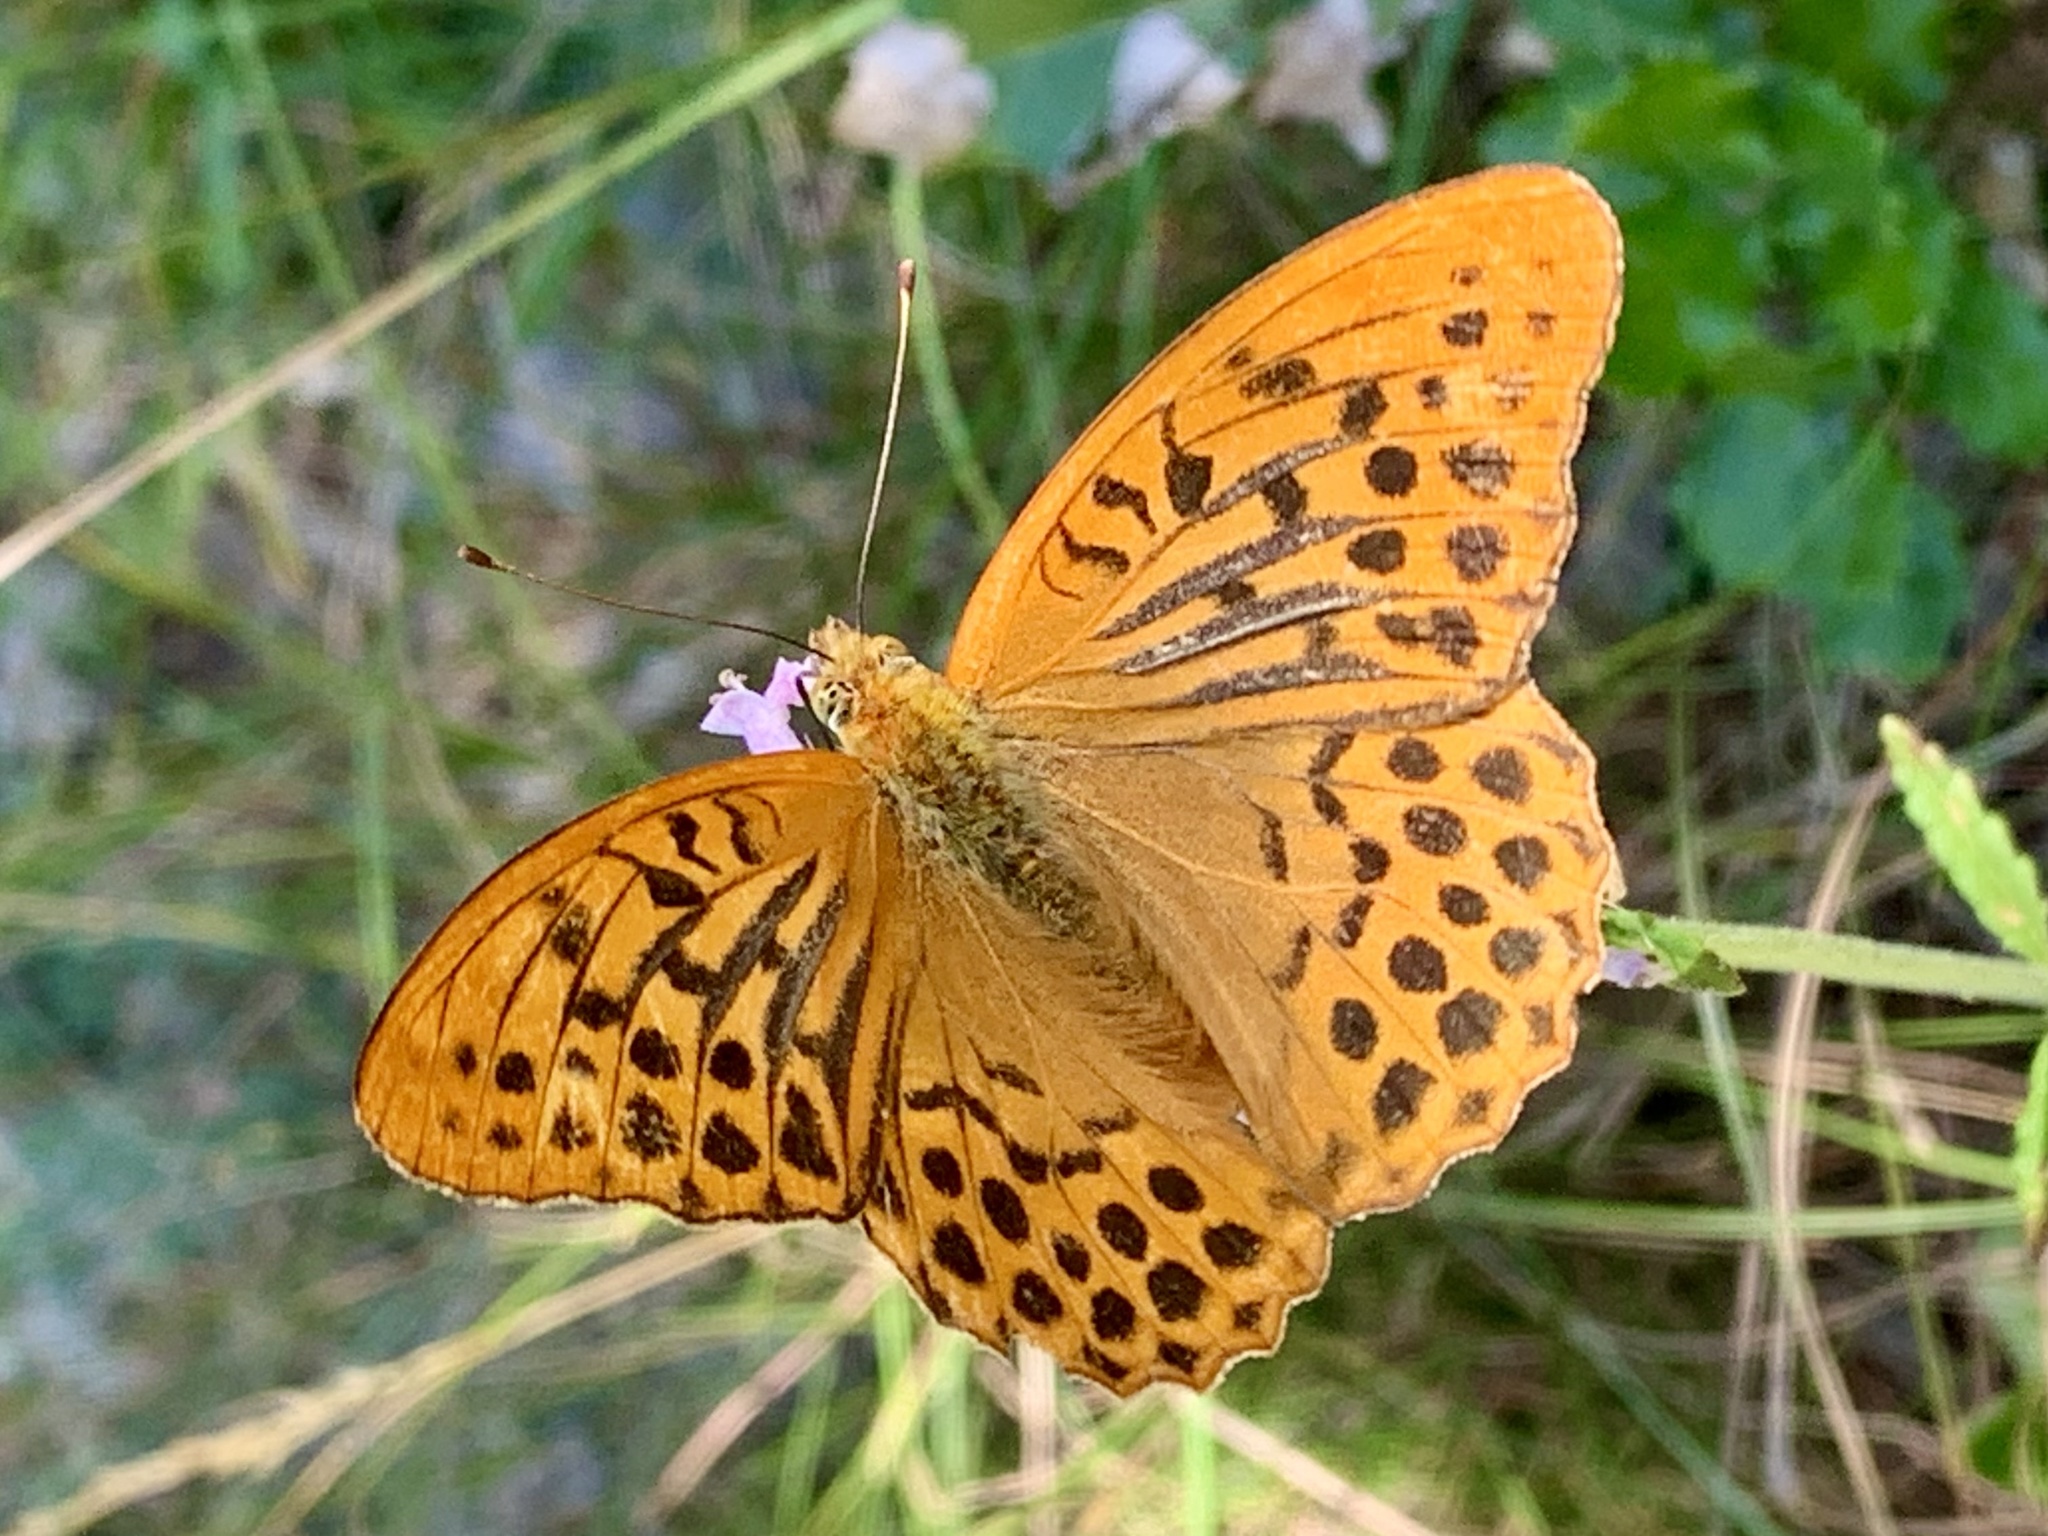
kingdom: Animalia
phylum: Arthropoda
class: Insecta
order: Lepidoptera
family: Nymphalidae
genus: Argynnis
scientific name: Argynnis paphia
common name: Silver-washed fritillary
